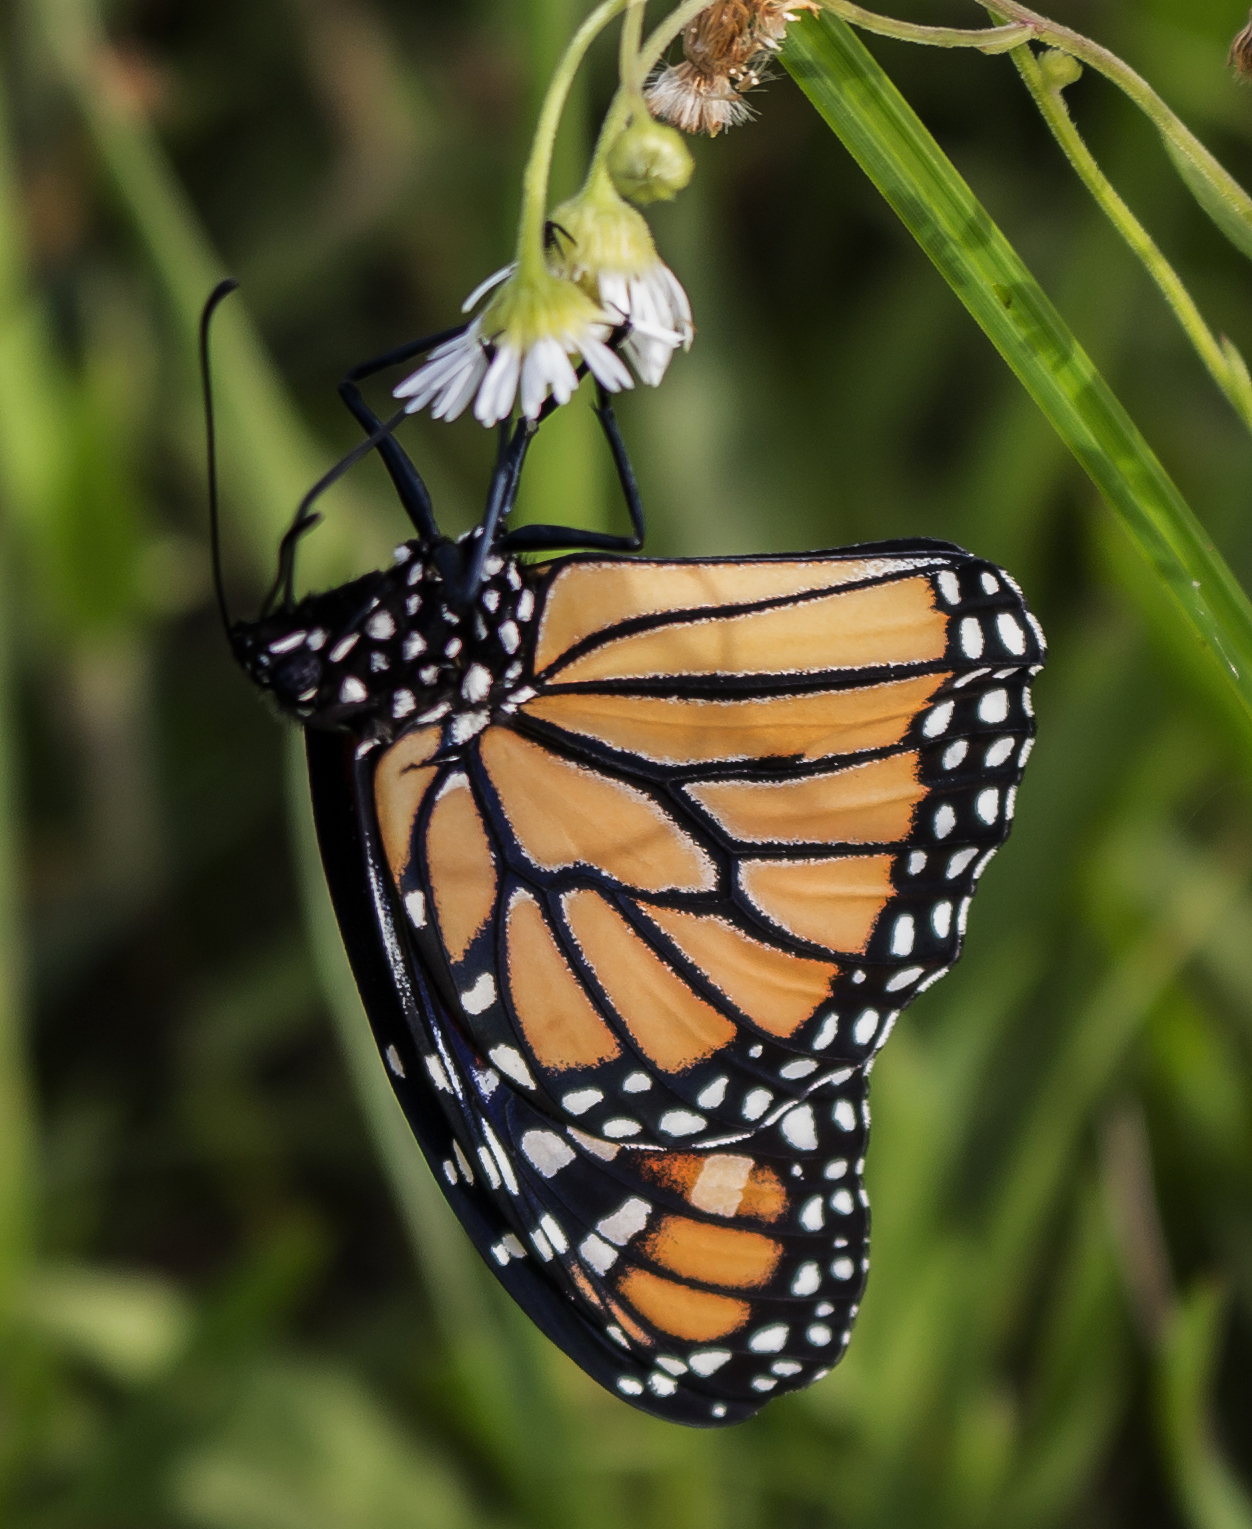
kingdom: Animalia
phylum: Arthropoda
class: Insecta
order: Lepidoptera
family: Nymphalidae
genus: Danaus
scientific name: Danaus plexippus
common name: Monarch
